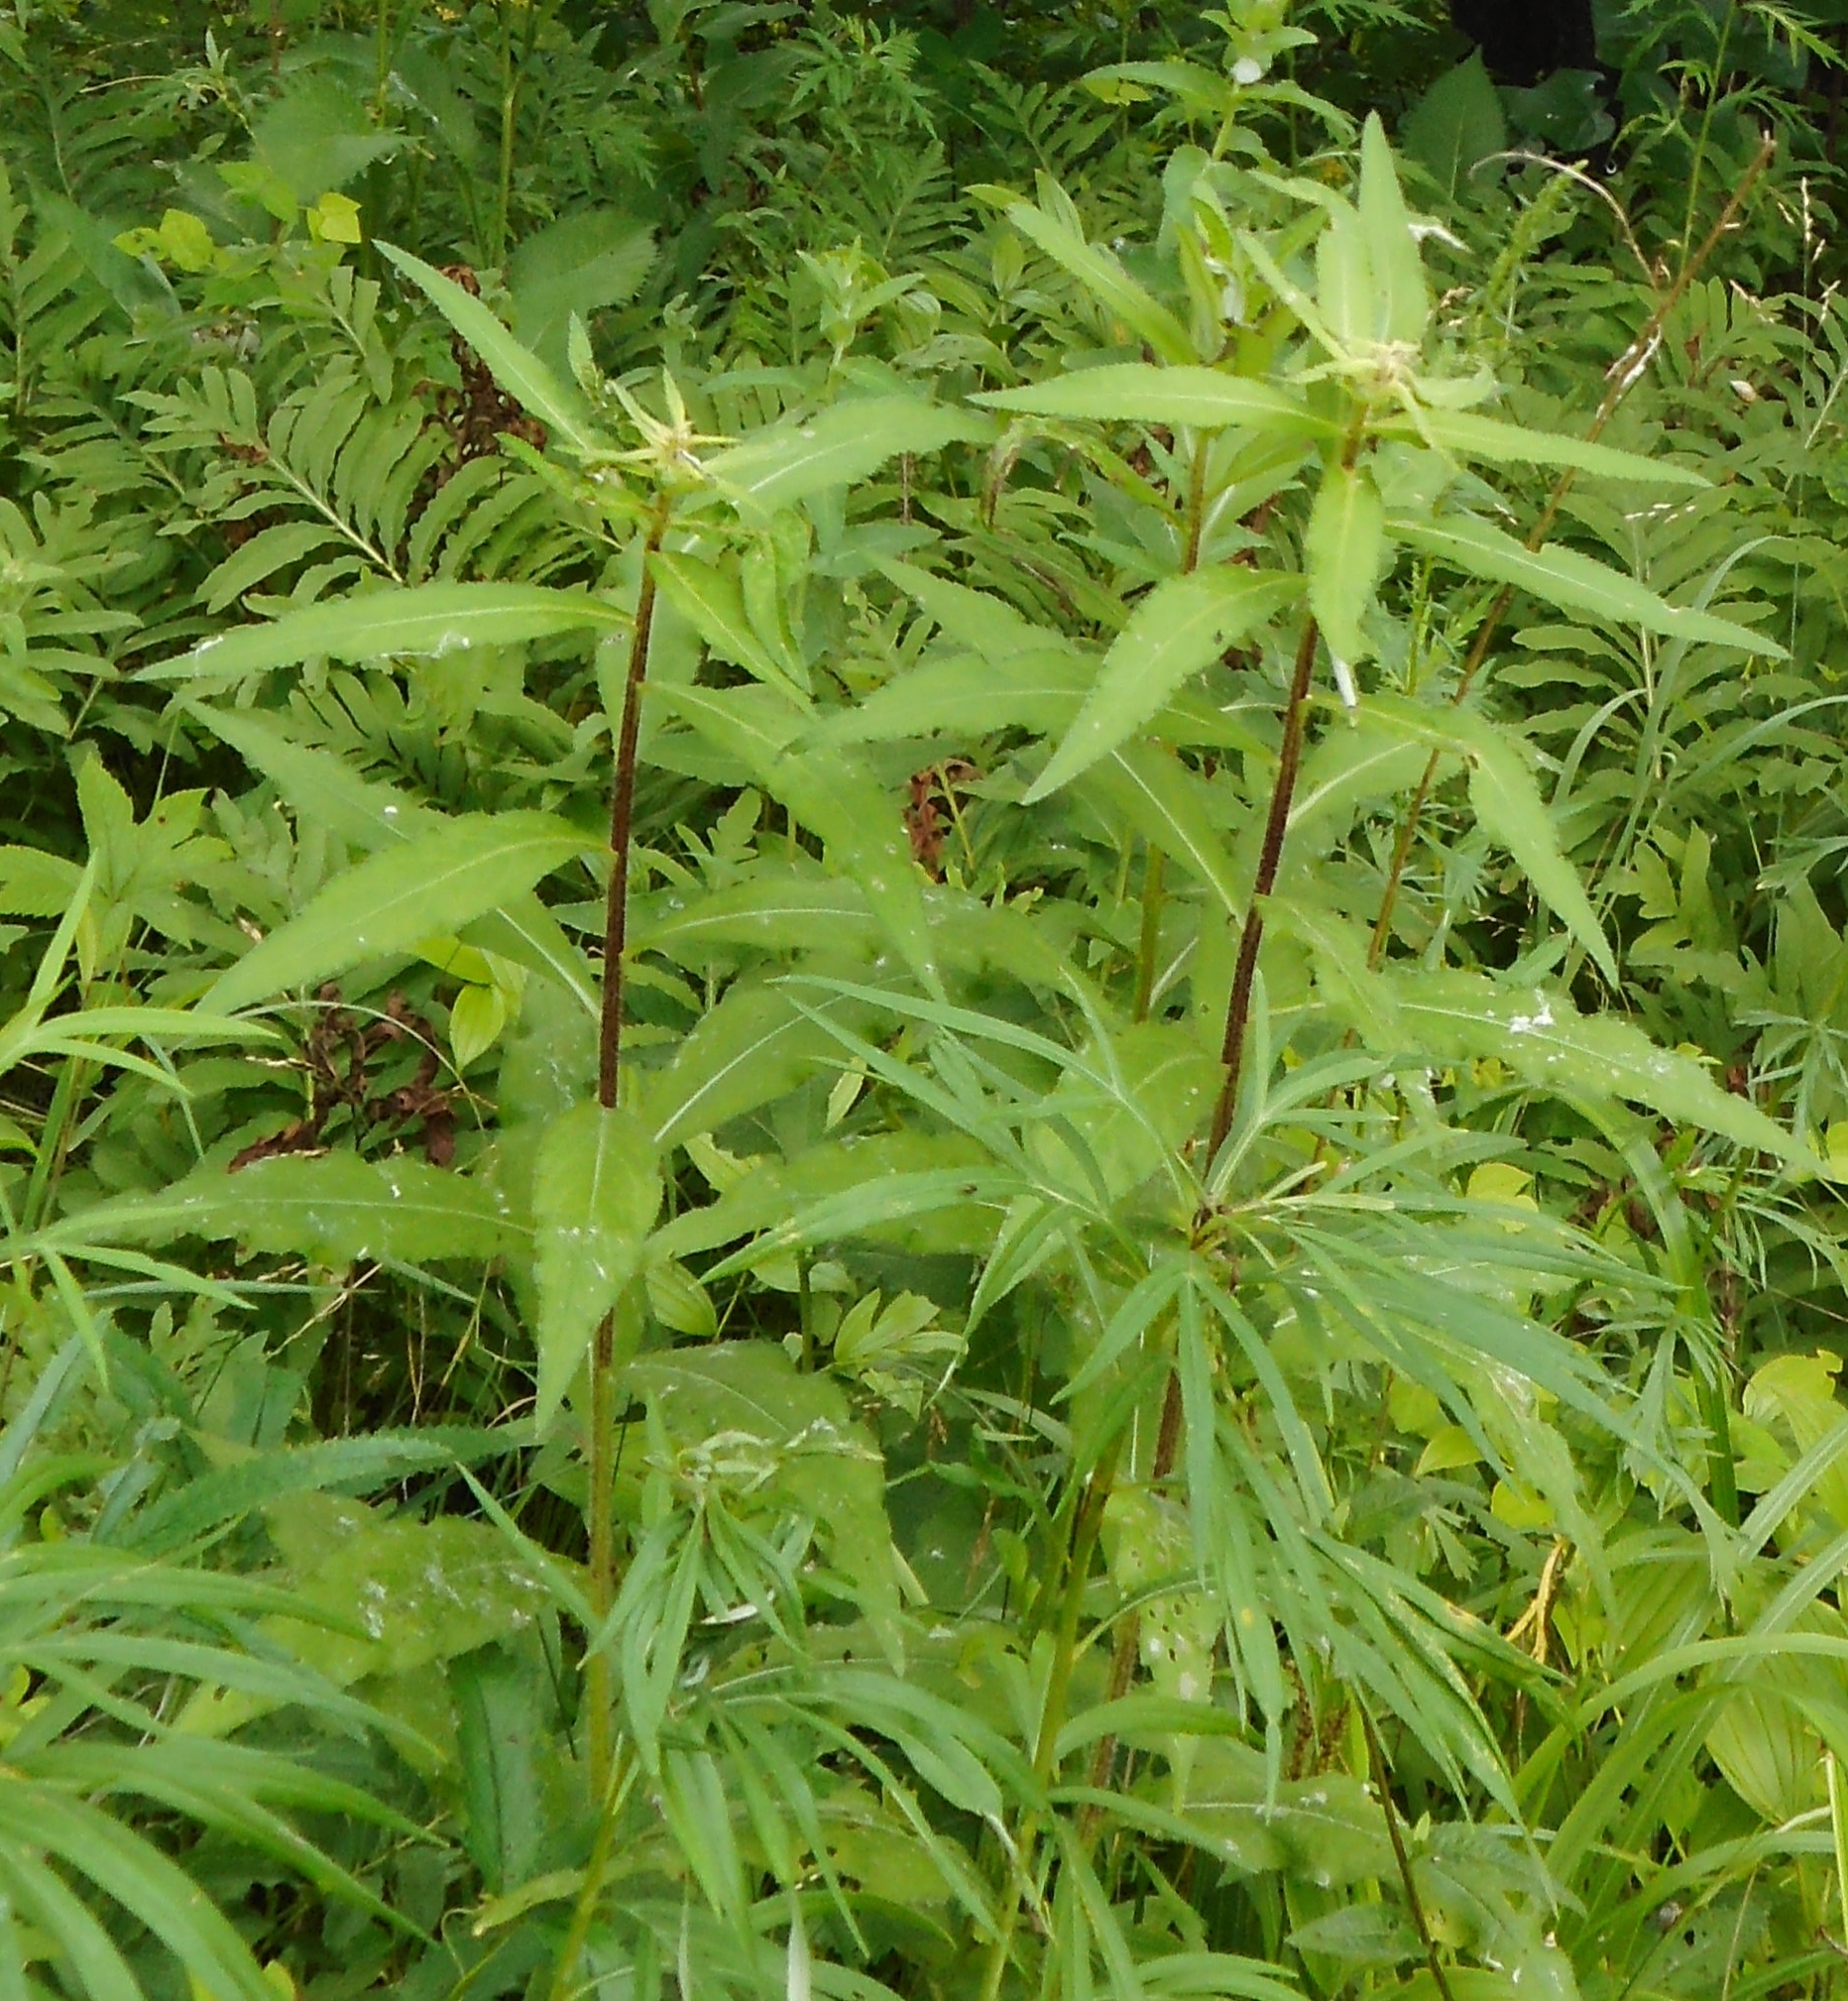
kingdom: Plantae
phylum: Tracheophyta
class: Magnoliopsida
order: Asterales
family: Asteraceae
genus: Cirsium
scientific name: Cirsium vlassovianum
